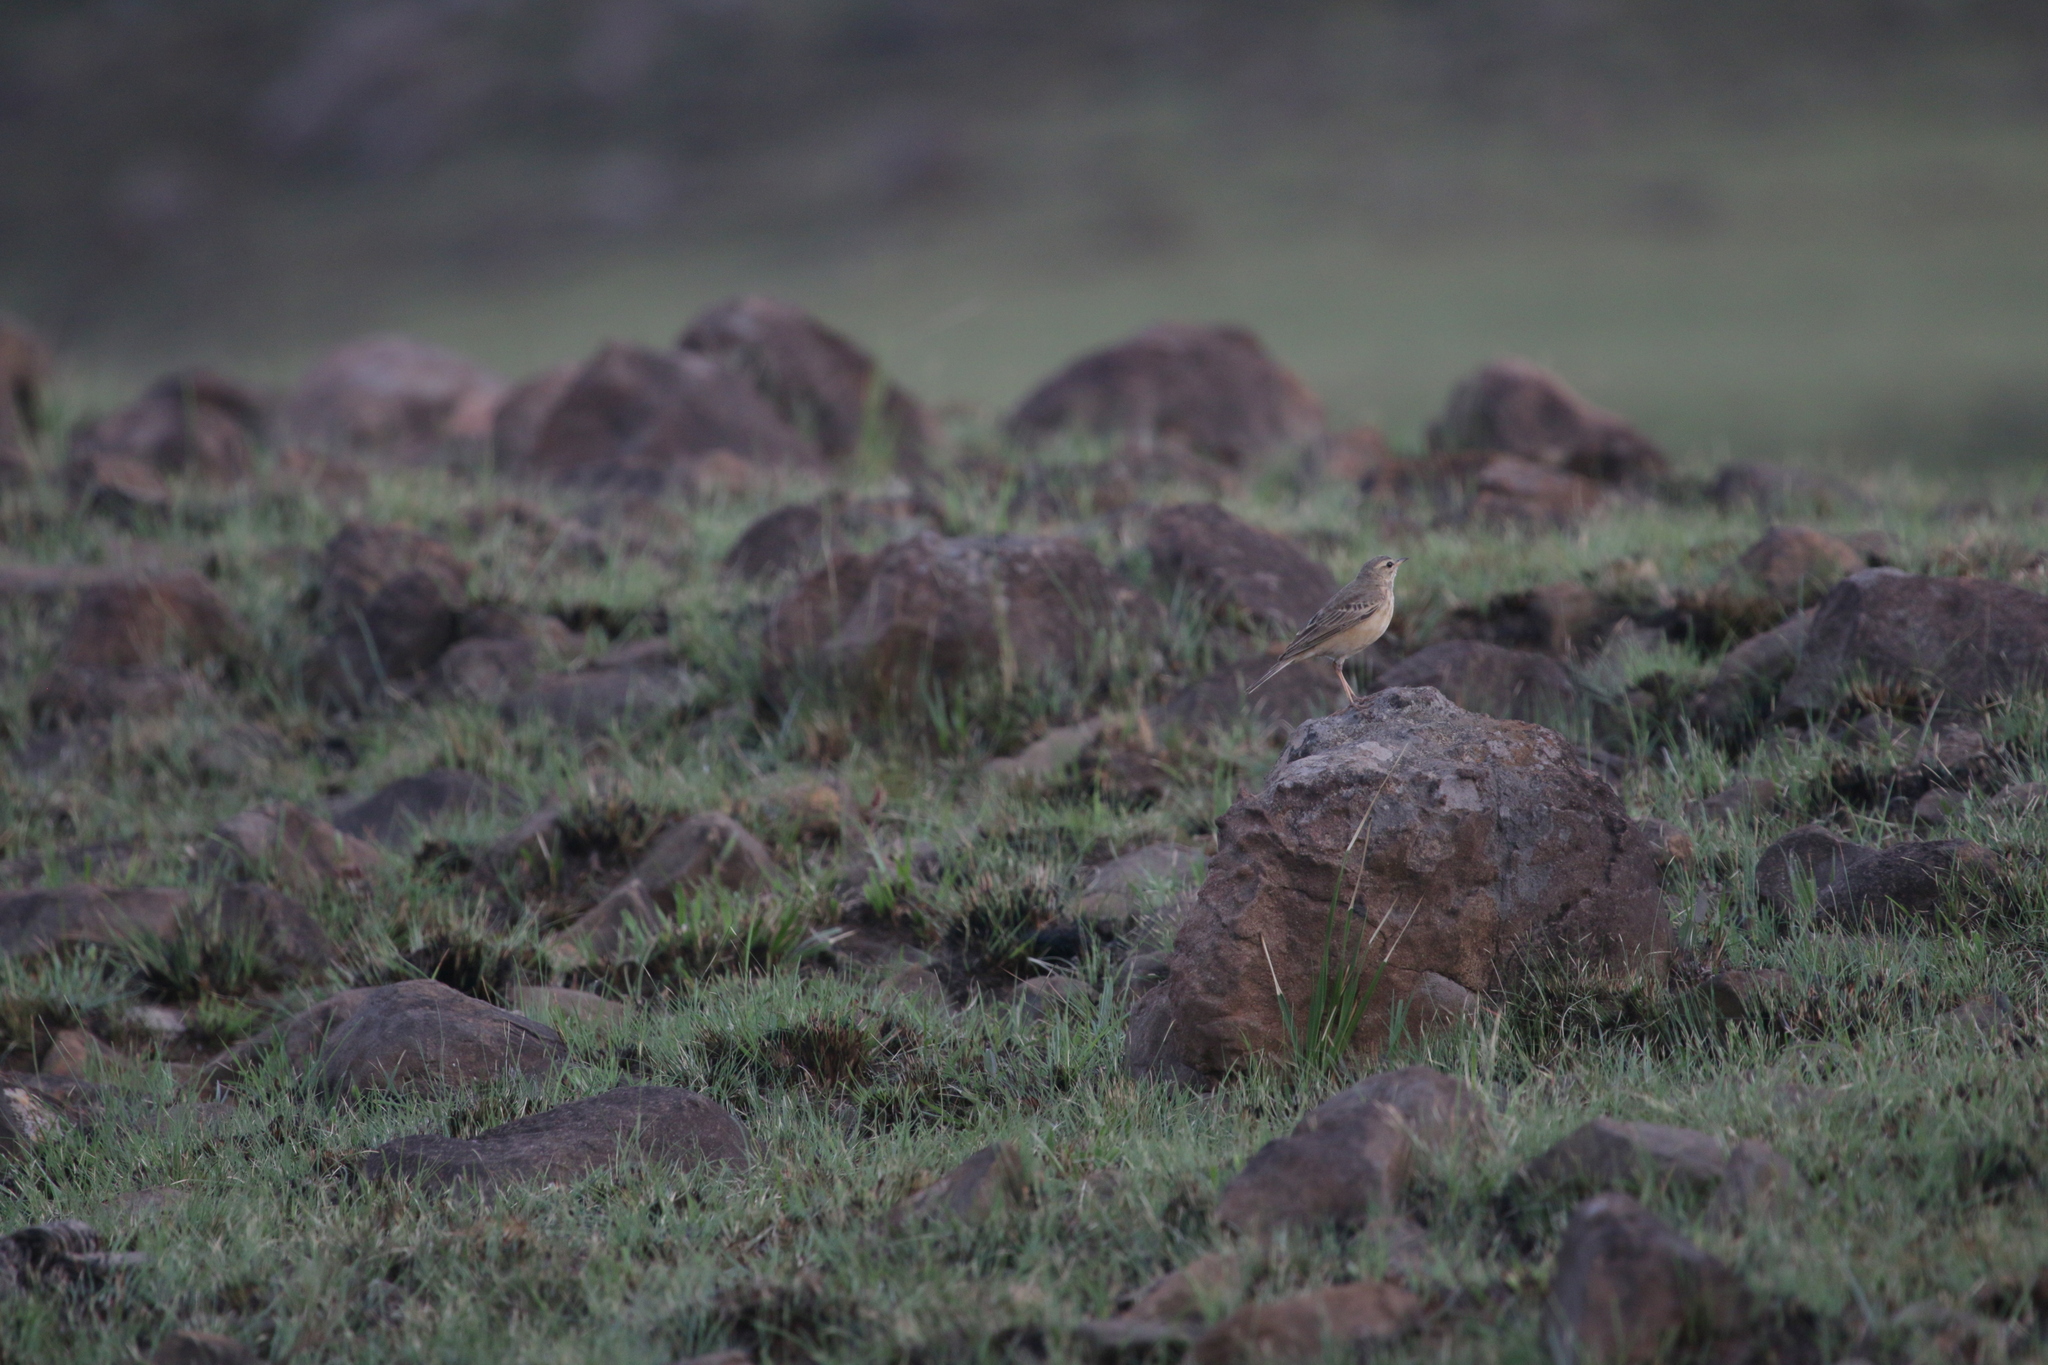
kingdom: Animalia
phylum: Chordata
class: Aves
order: Passeriformes
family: Motacillidae
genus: Anthus
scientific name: Anthus nicholsoni
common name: Nicholson's pipit
